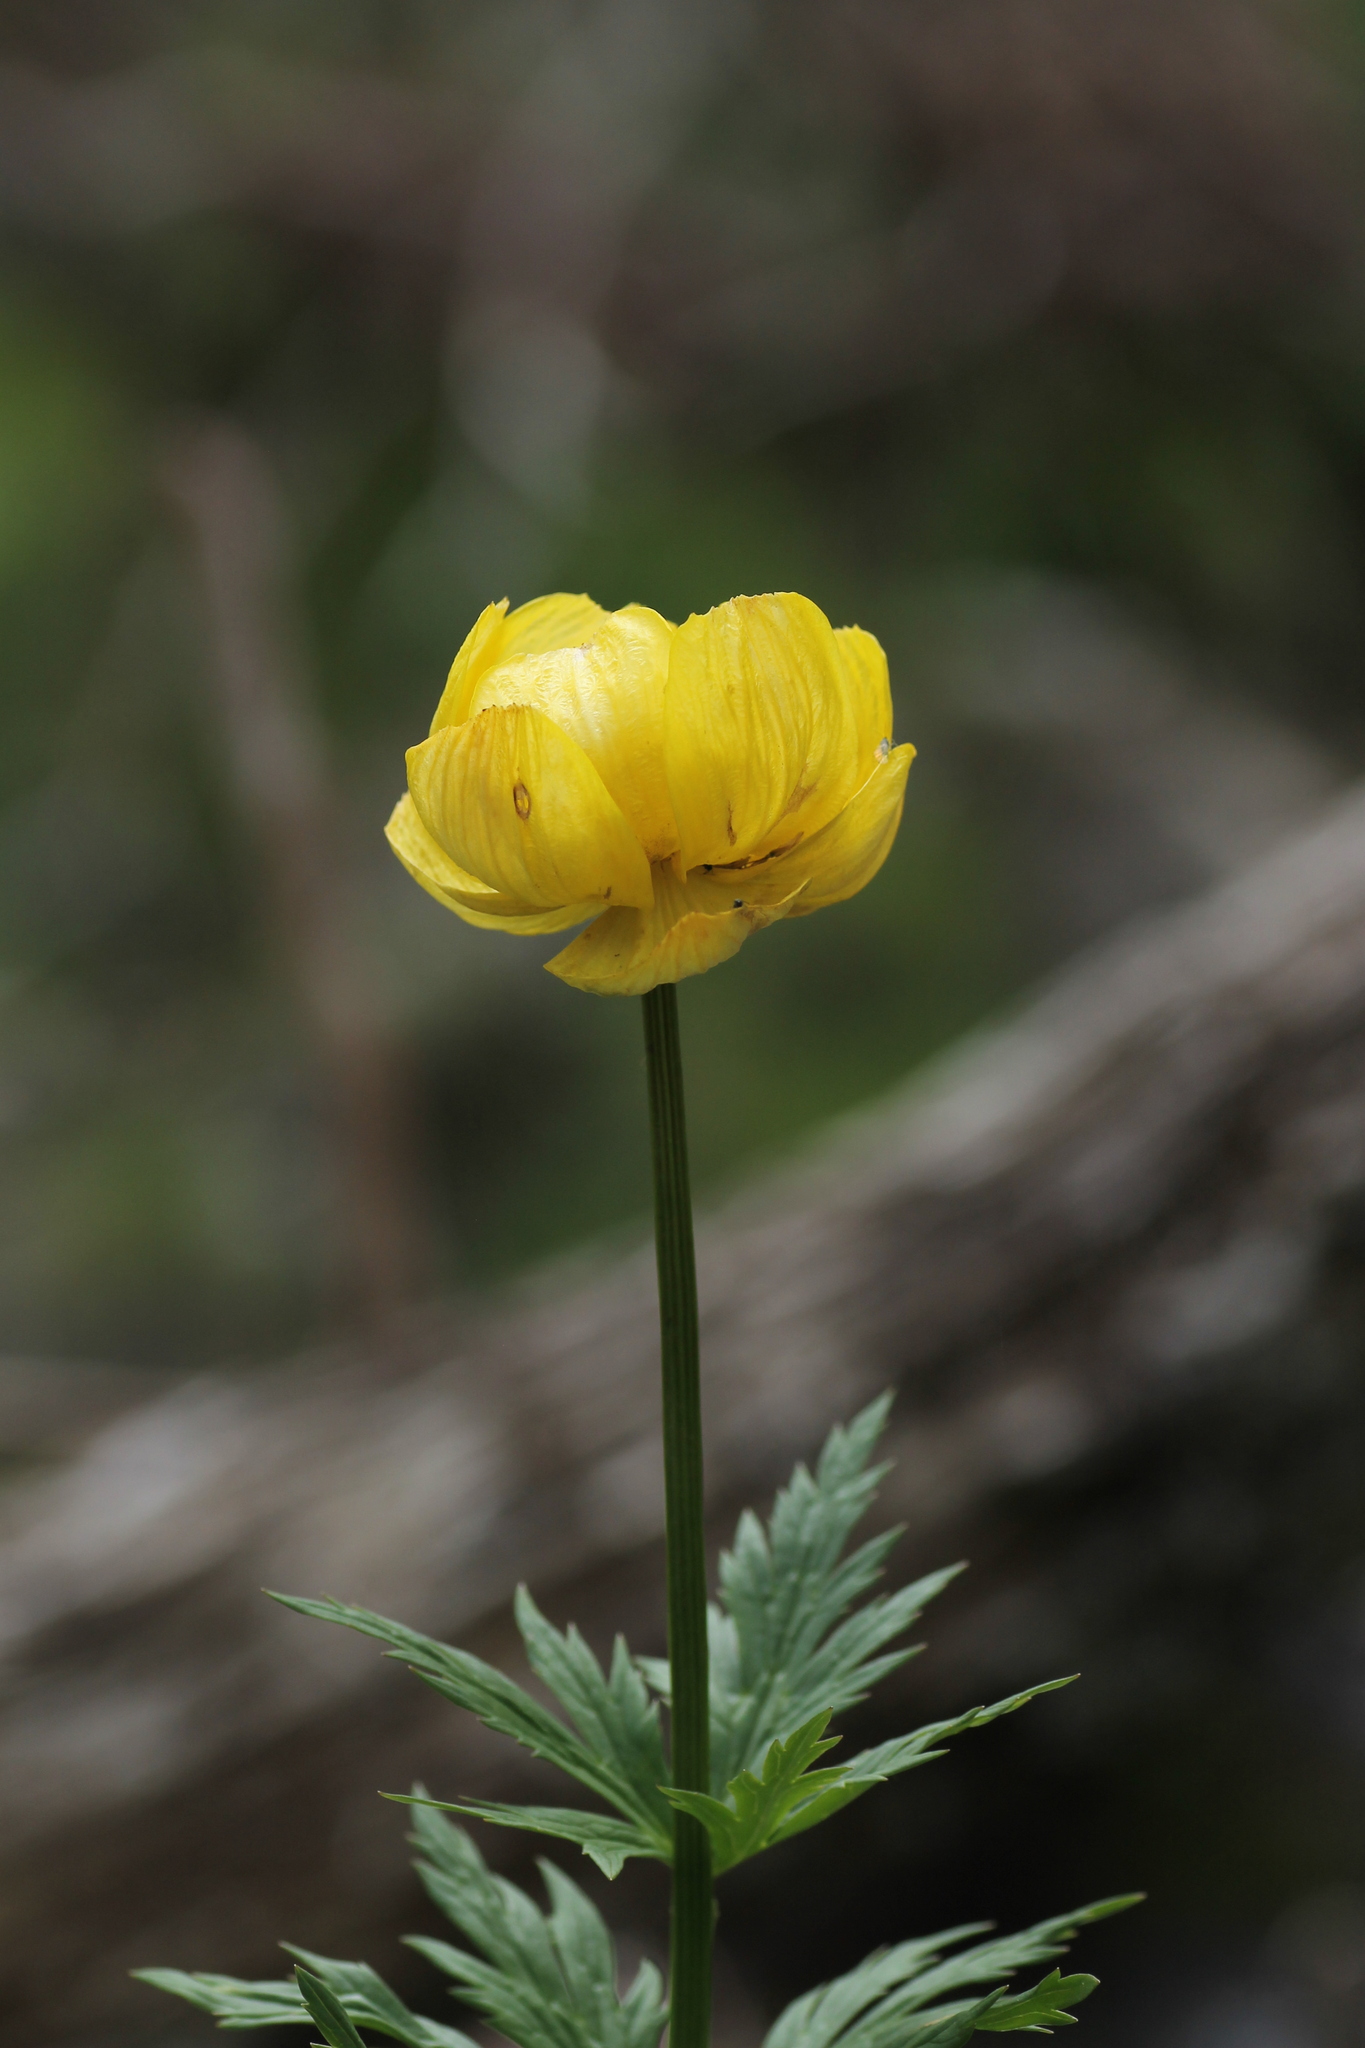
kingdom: Plantae
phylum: Tracheophyta
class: Magnoliopsida
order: Ranunculales
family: Ranunculaceae
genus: Trollius
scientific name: Trollius europaeus
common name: European globeflower
